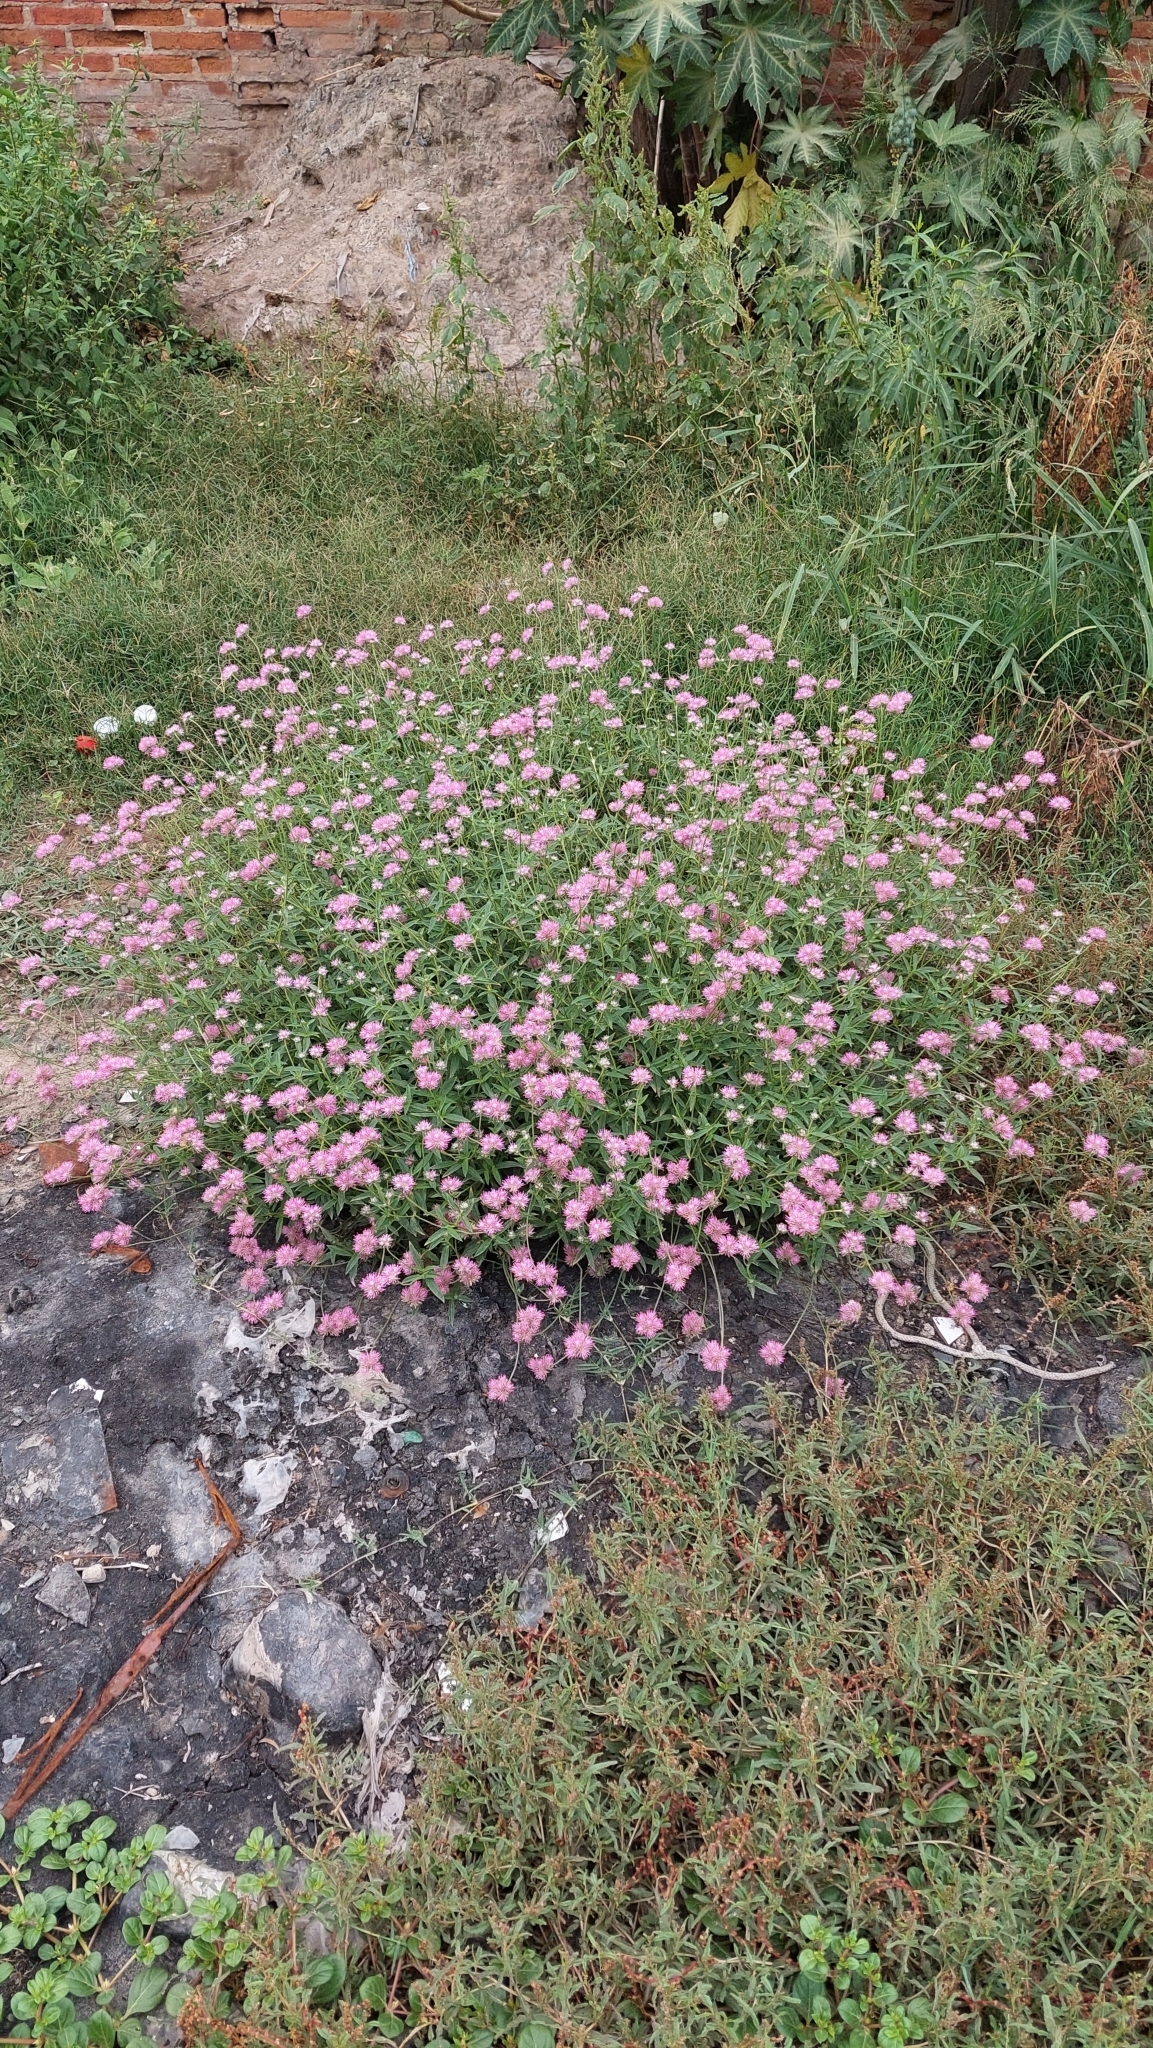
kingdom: Plantae
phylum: Tracheophyta
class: Magnoliopsida
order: Caryophyllales
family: Amaranthaceae
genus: Gomphrena
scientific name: Gomphrena pulchella
